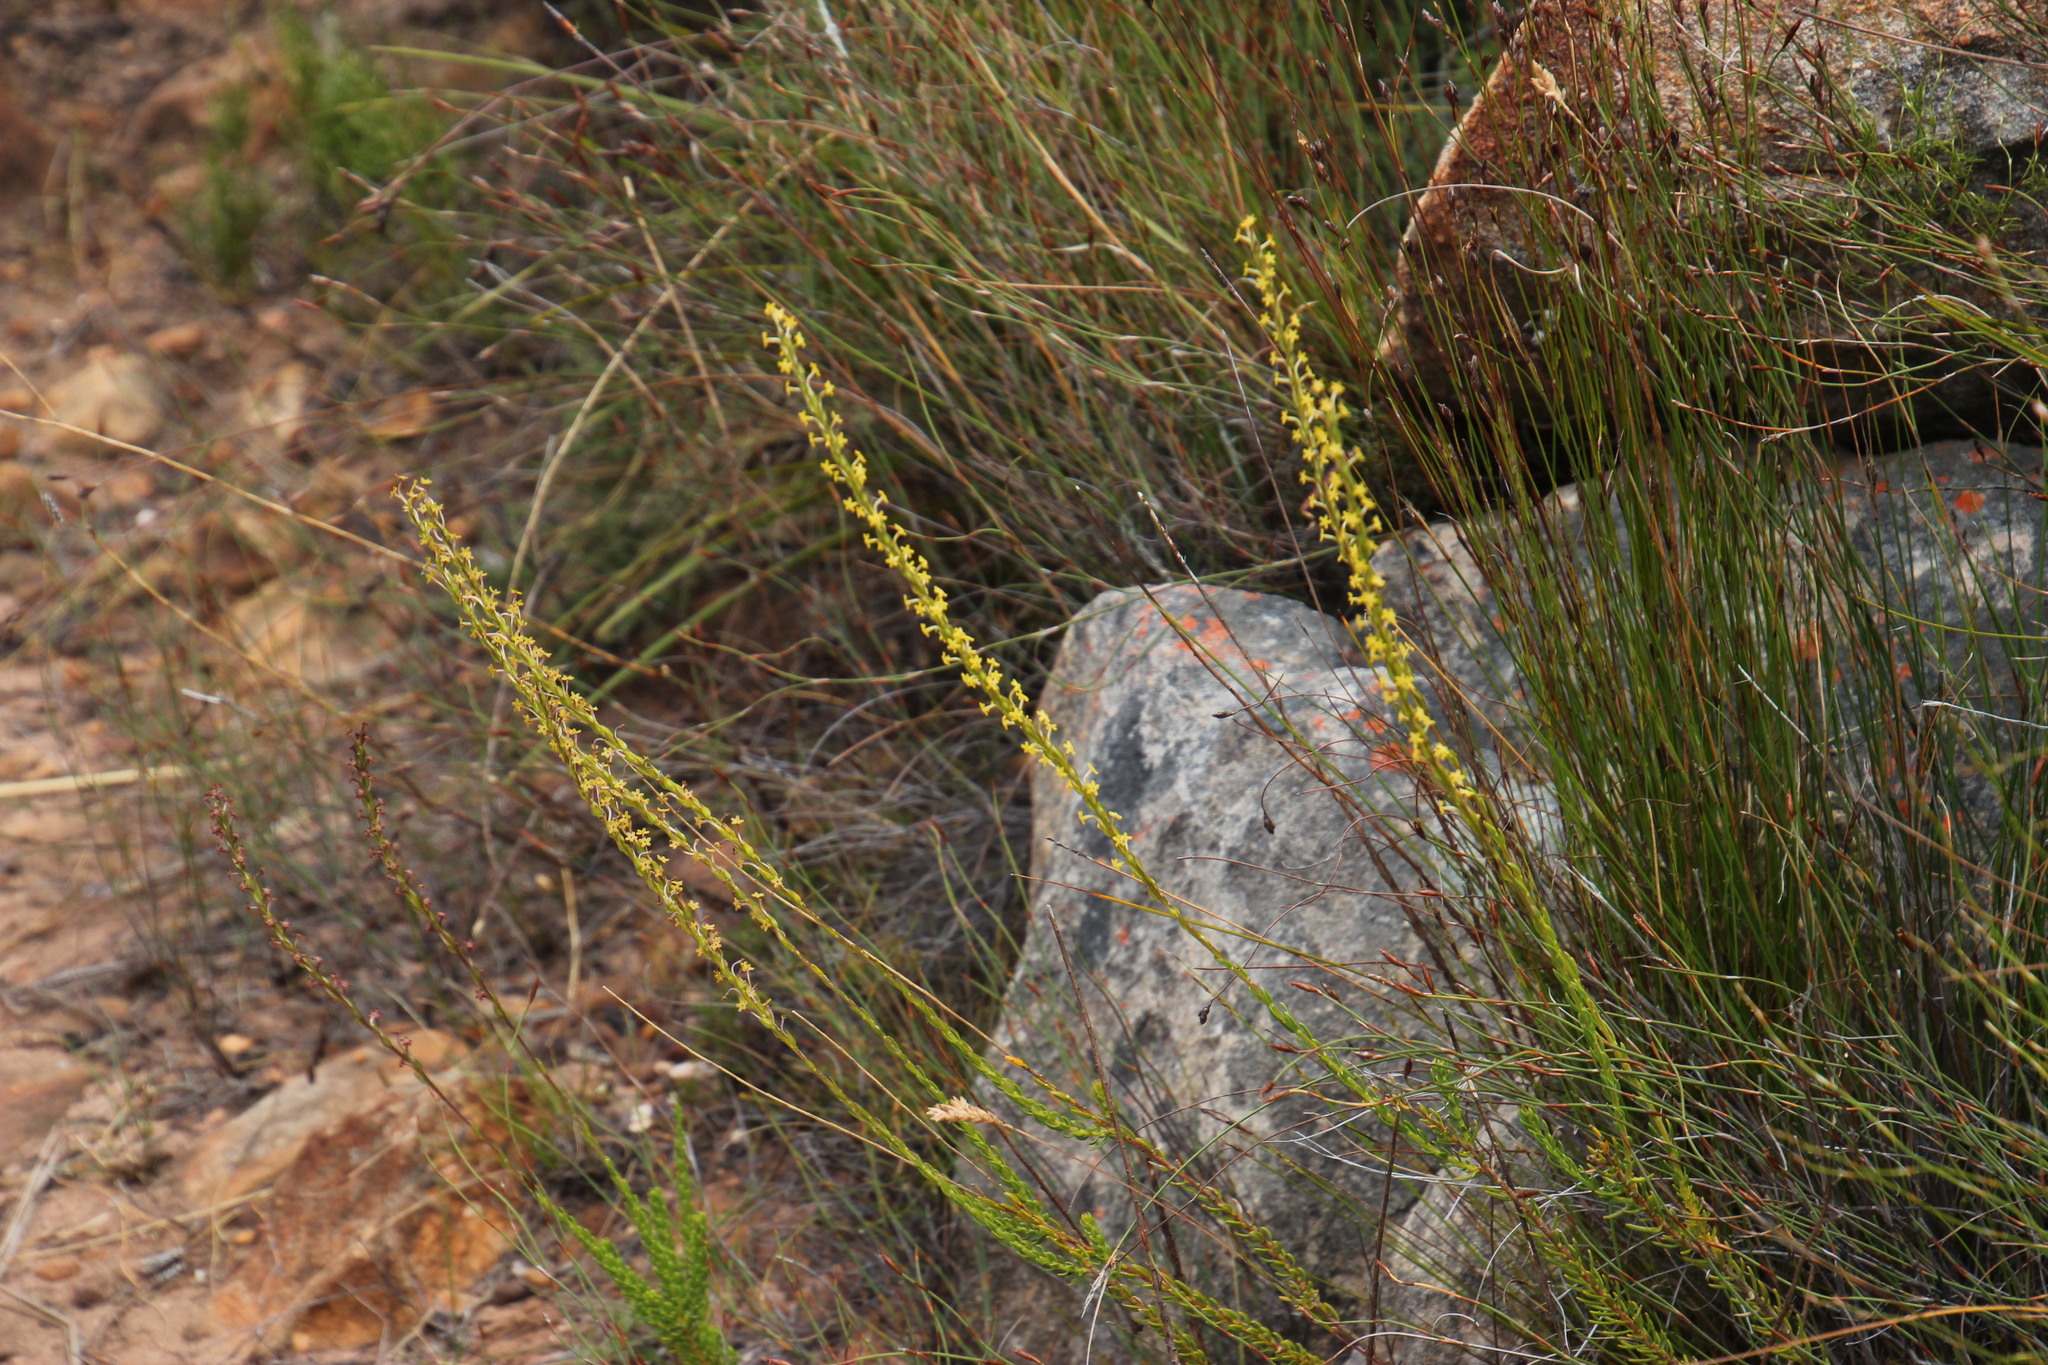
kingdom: Plantae
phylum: Tracheophyta
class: Magnoliopsida
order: Lamiales
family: Scrophulariaceae
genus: Microdon
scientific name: Microdon dubius
